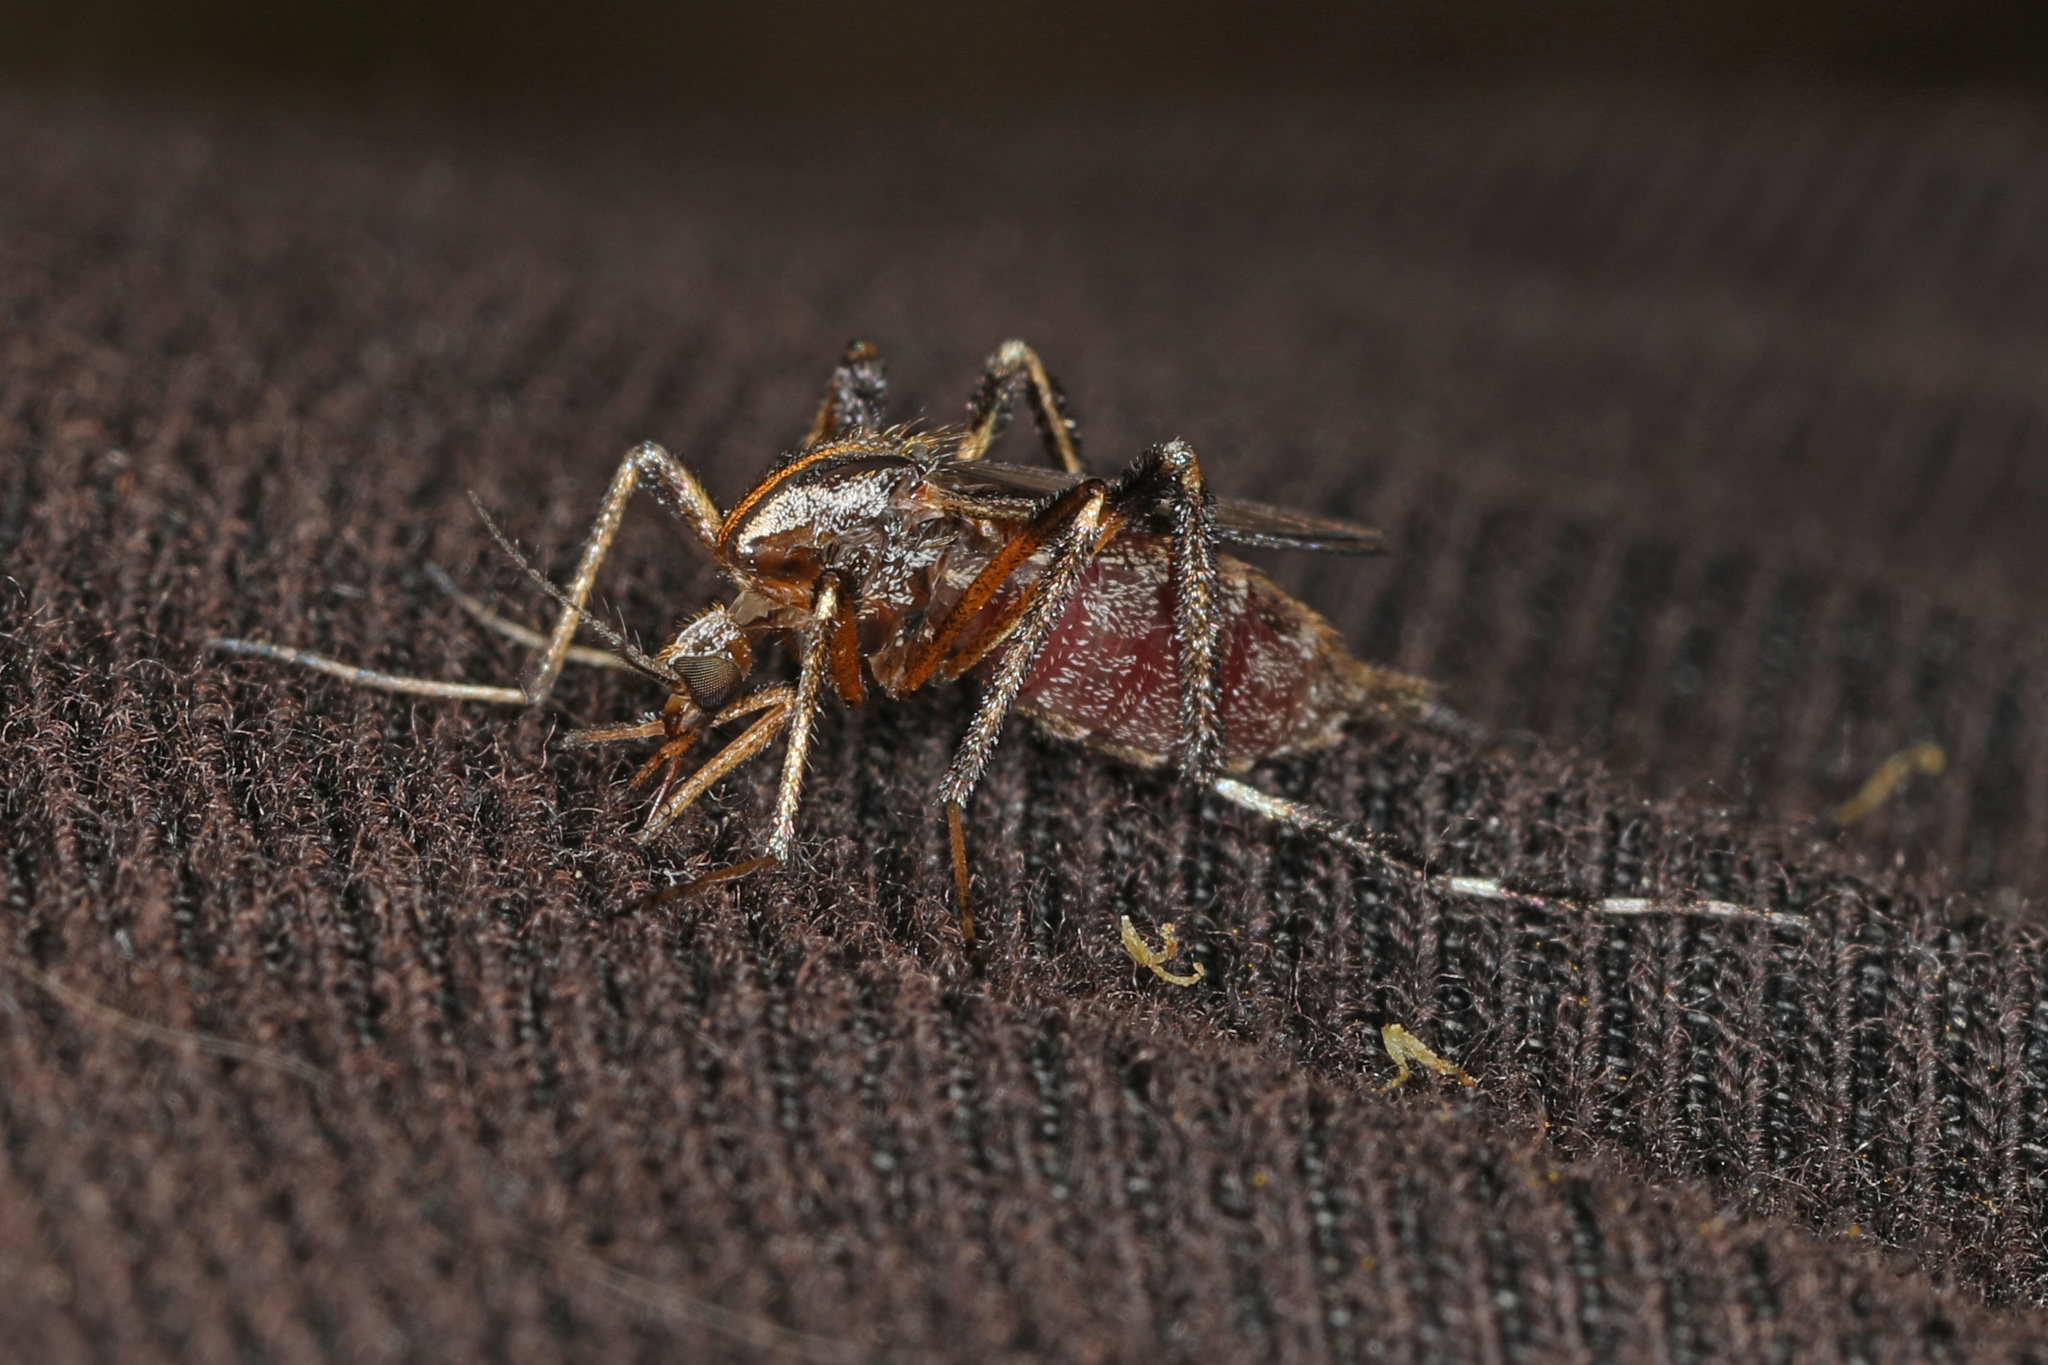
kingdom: Animalia
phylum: Arthropoda
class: Insecta
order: Diptera
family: Culicidae
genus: Psorophora
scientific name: Psorophora ciliata
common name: Gallinipper
